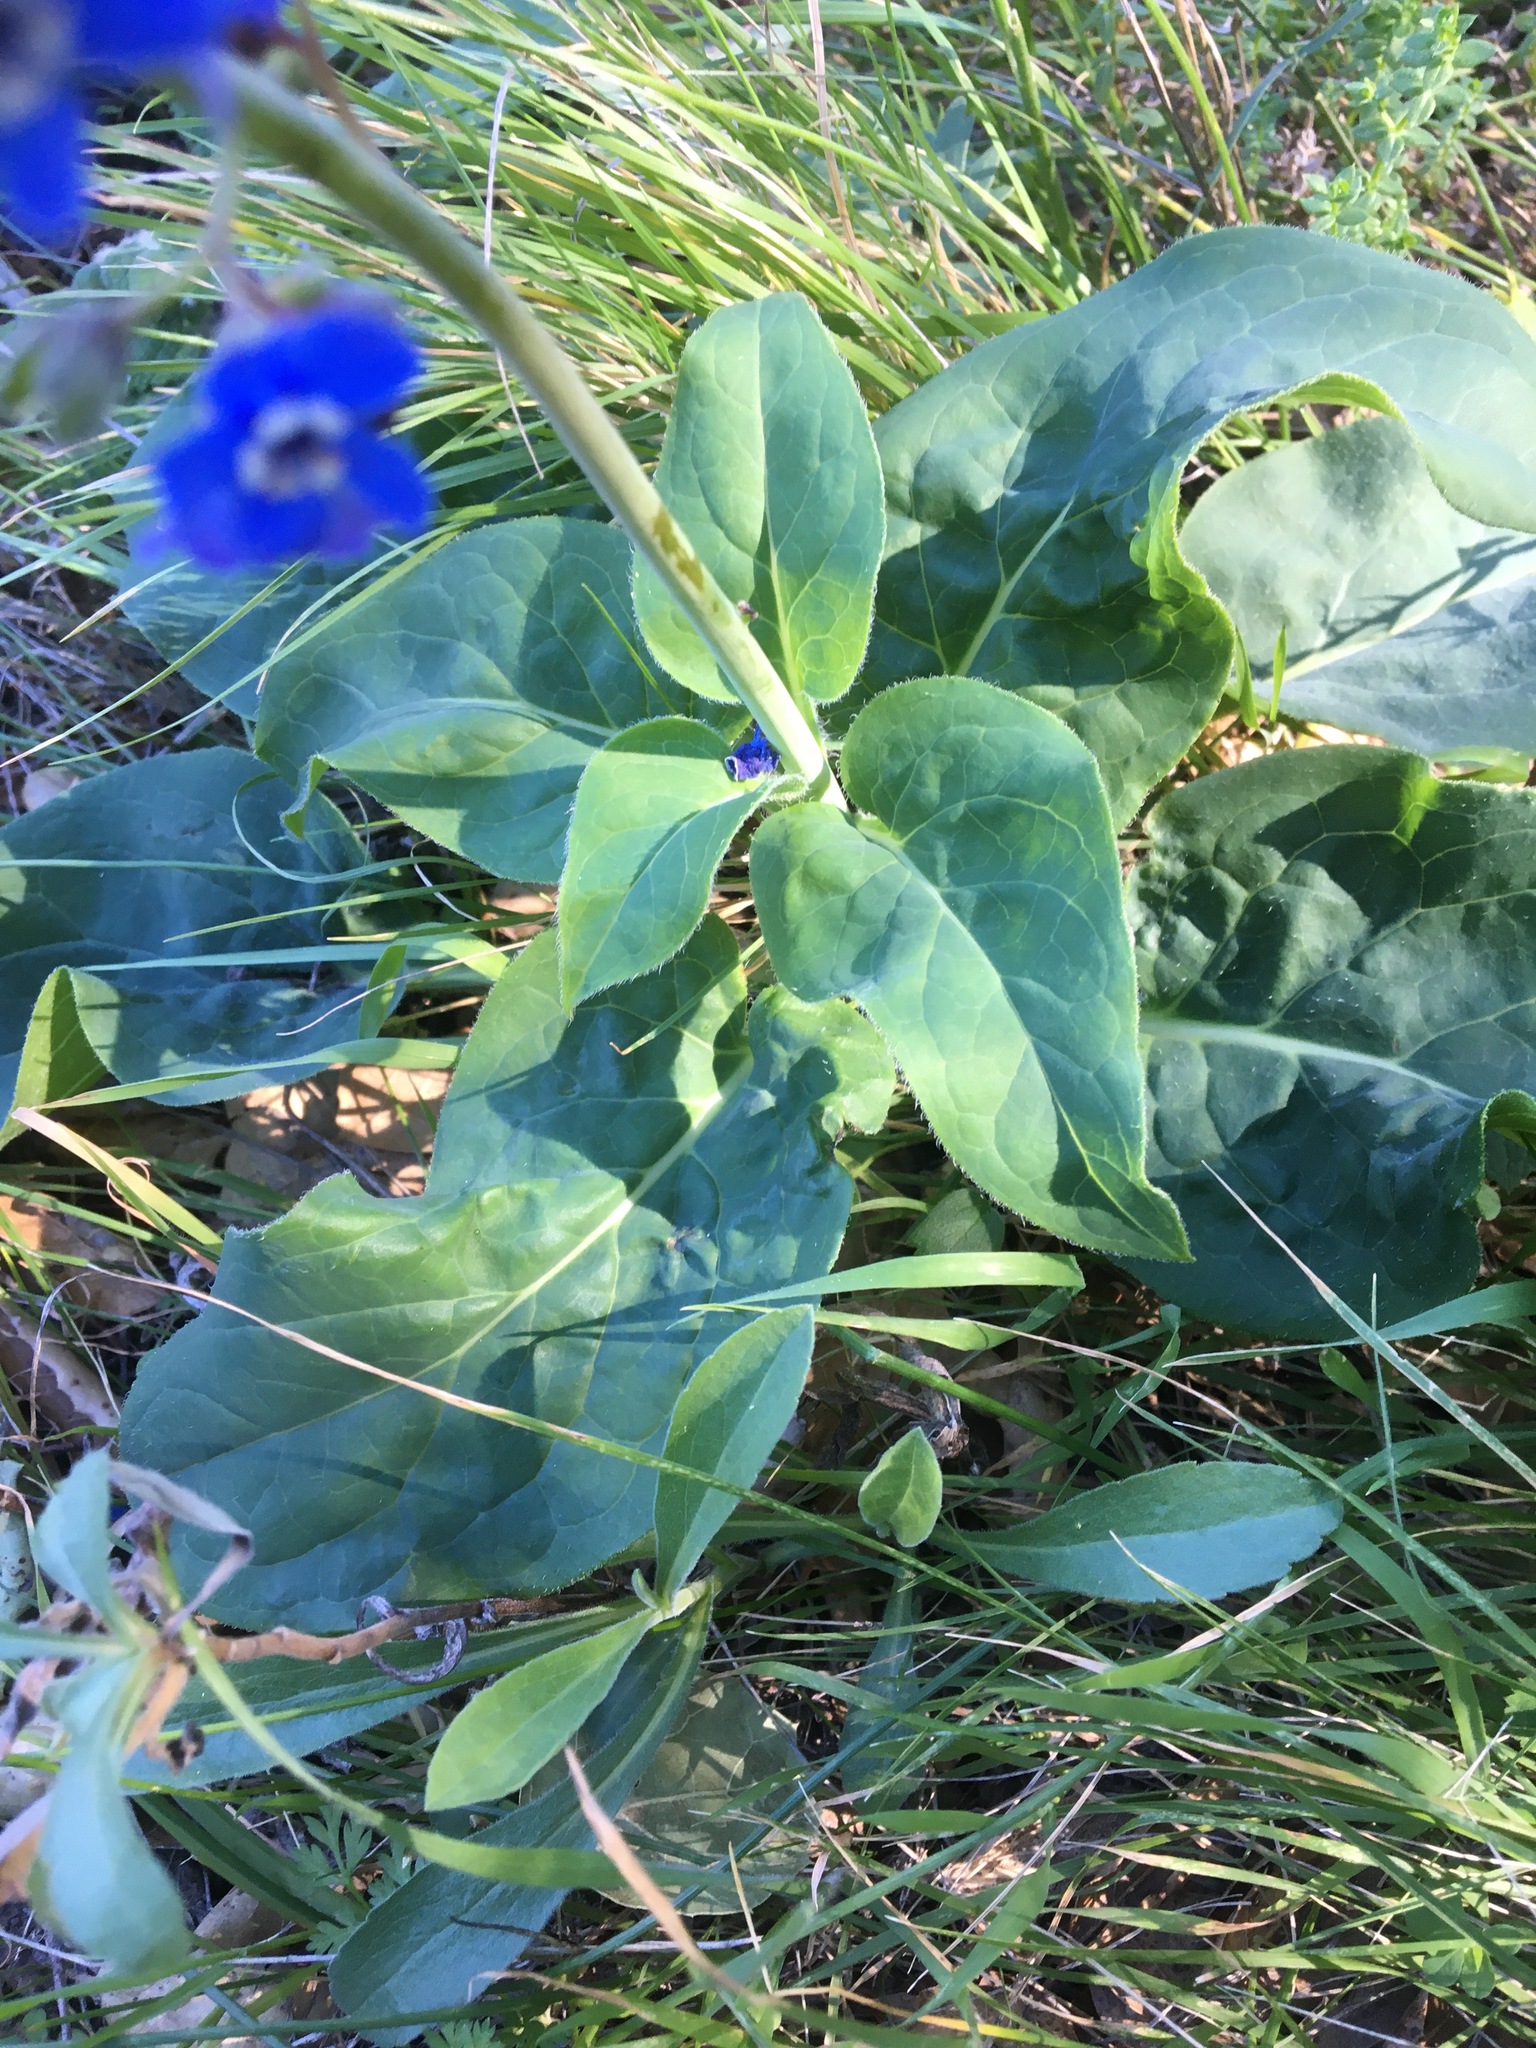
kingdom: Plantae
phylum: Tracheophyta
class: Magnoliopsida
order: Boraginales
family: Boraginaceae
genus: Adelinia
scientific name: Adelinia grande
